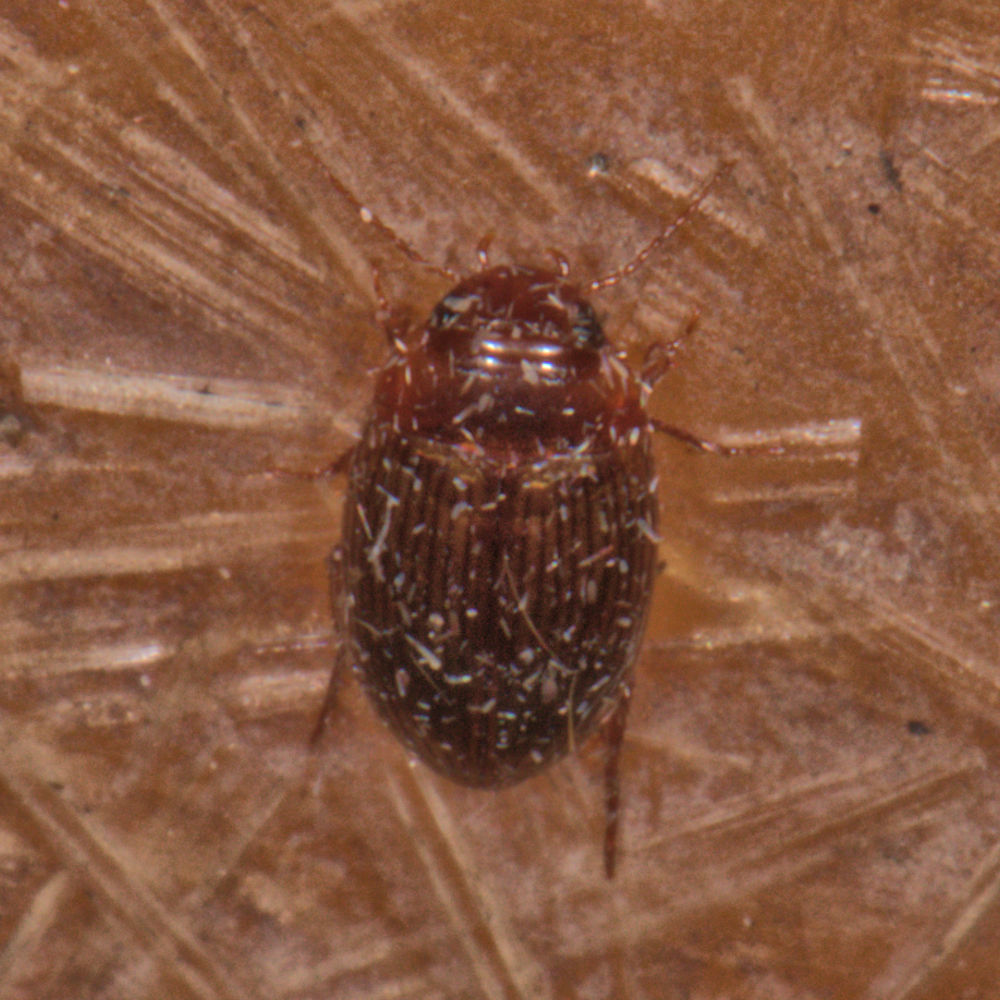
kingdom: Animalia
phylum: Arthropoda
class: Insecta
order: Coleoptera
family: Dytiscidae
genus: Copelatus
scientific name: Copelatus glyphicus
